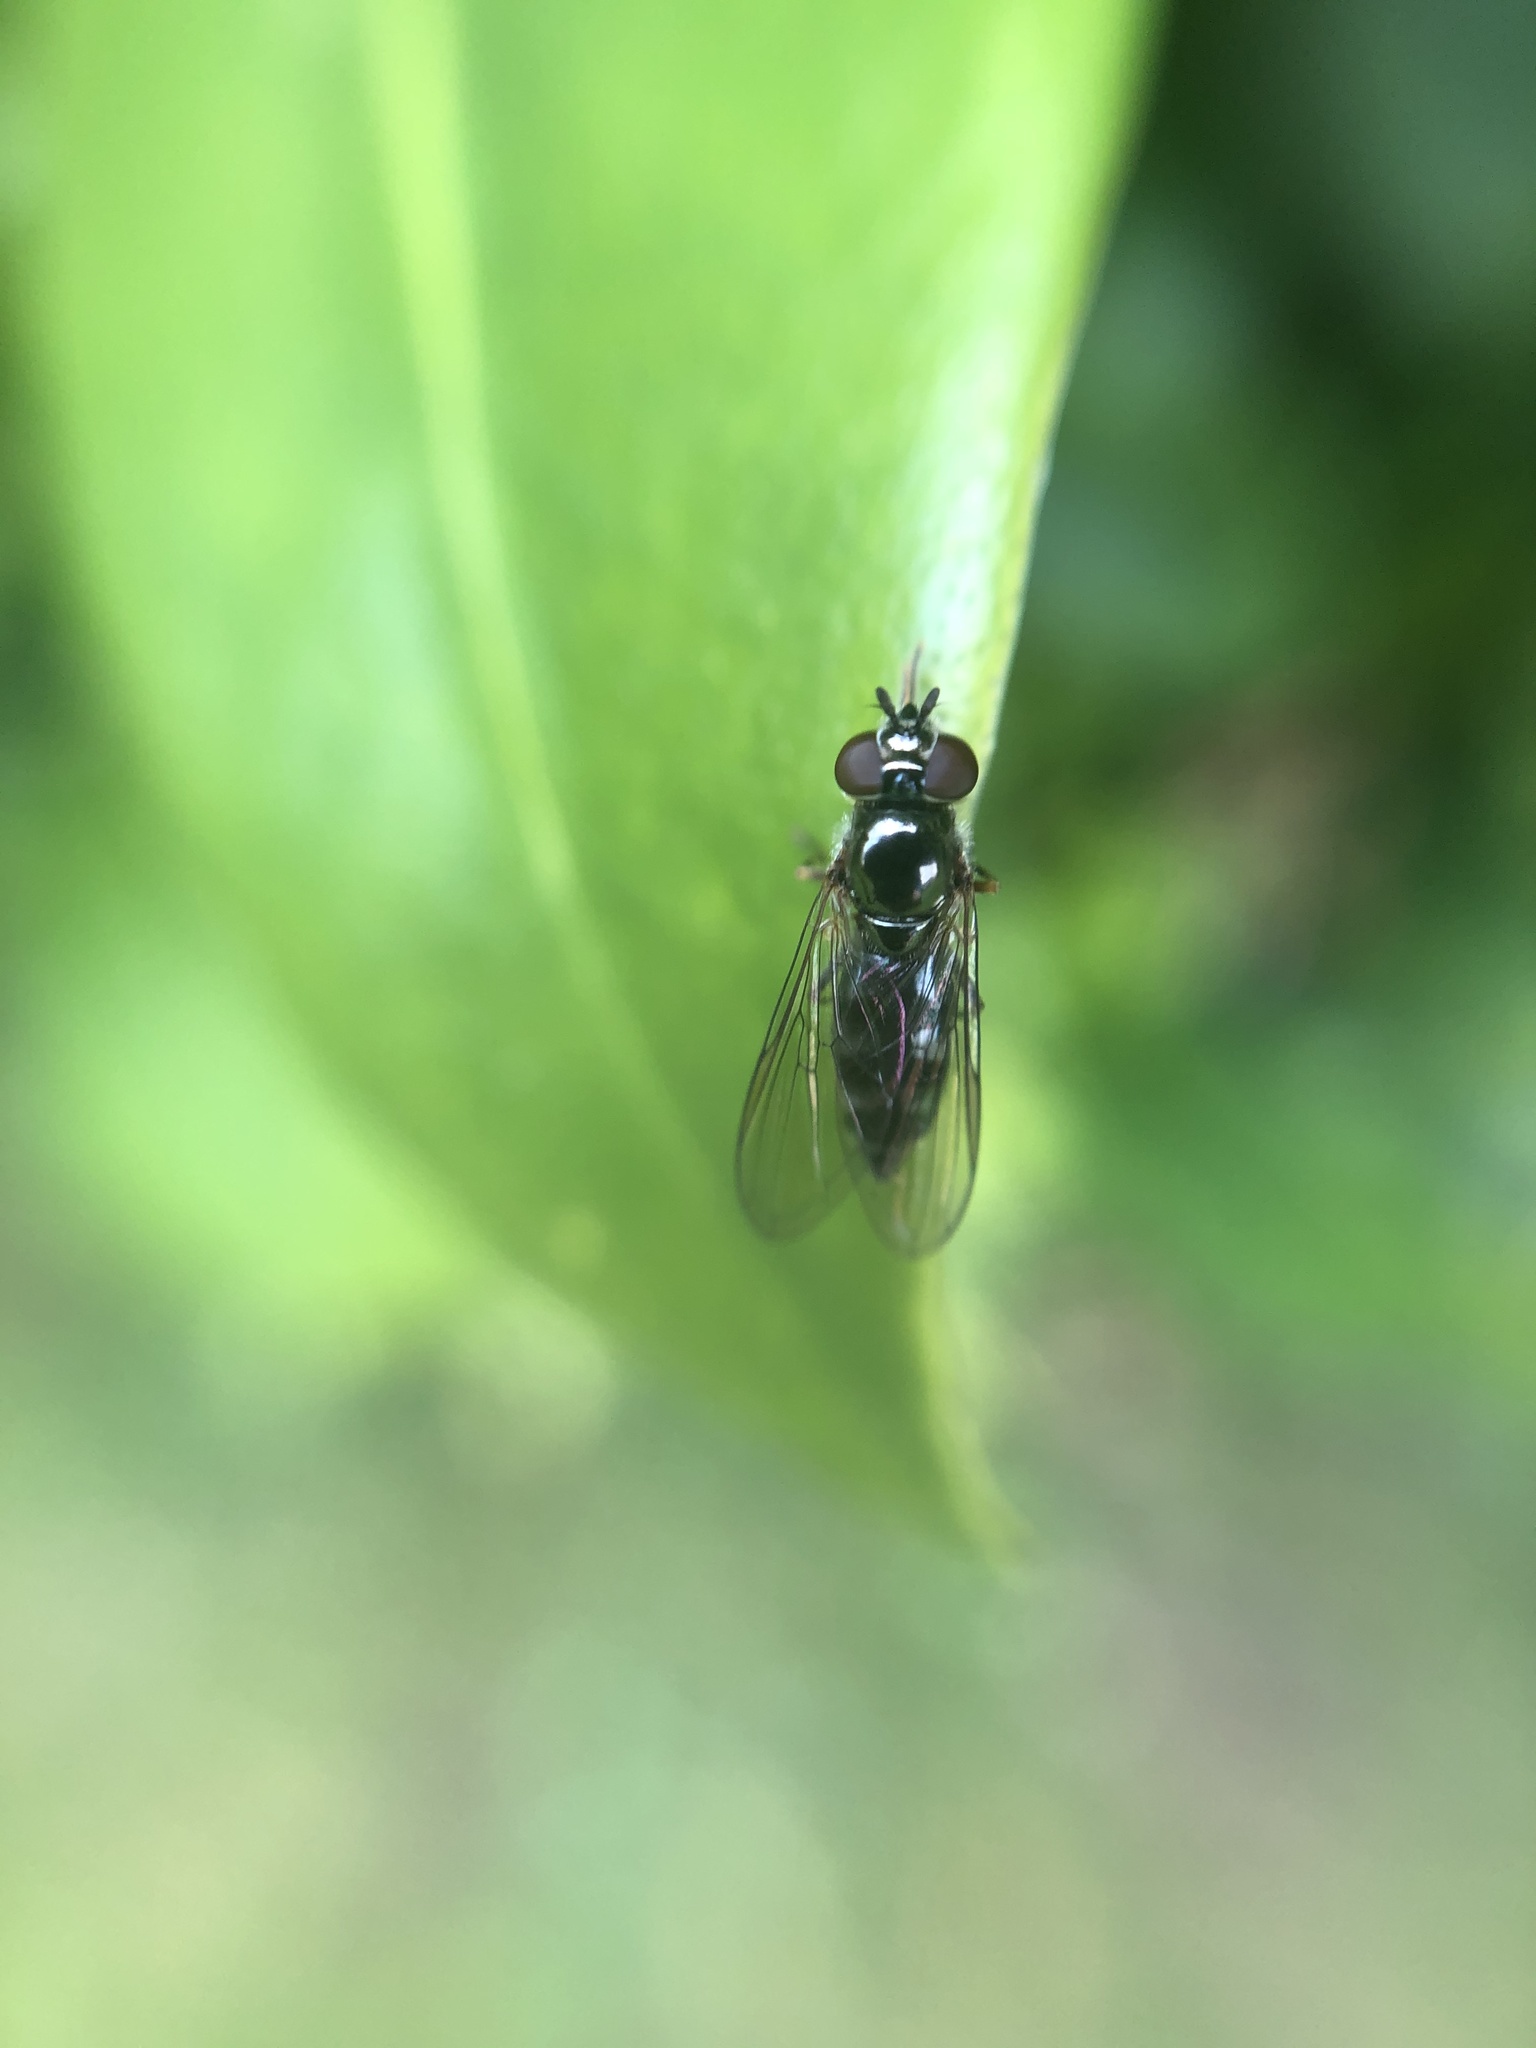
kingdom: Animalia
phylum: Arthropoda
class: Insecta
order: Diptera
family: Syrphidae
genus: Platycheirus
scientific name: Platycheirus albimanus
